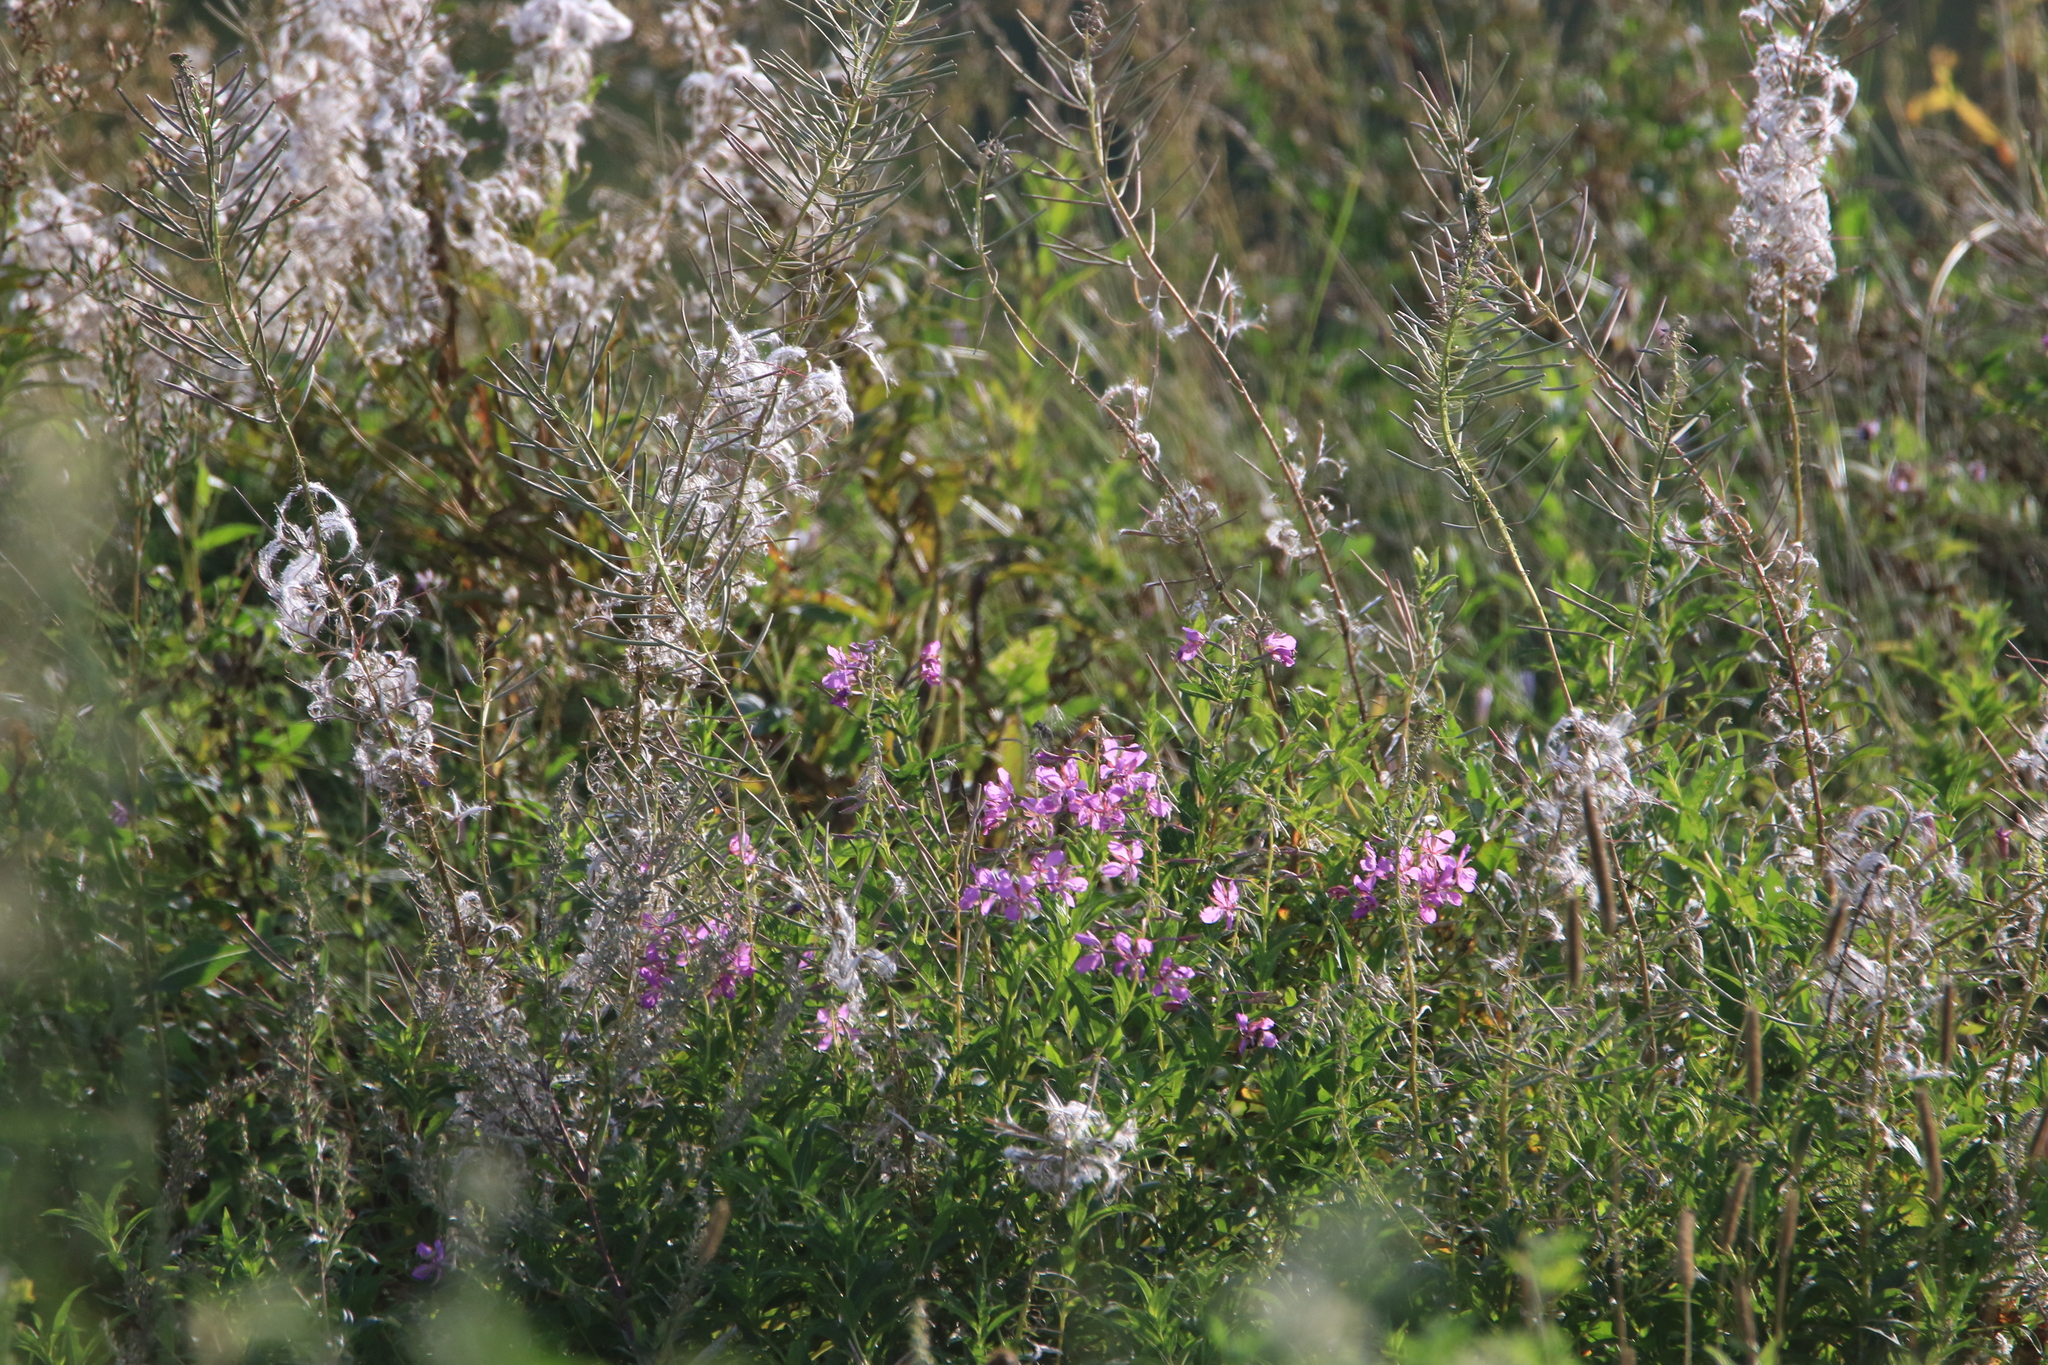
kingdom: Plantae
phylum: Tracheophyta
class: Magnoliopsida
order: Myrtales
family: Onagraceae
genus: Chamaenerion
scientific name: Chamaenerion angustifolium
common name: Fireweed
